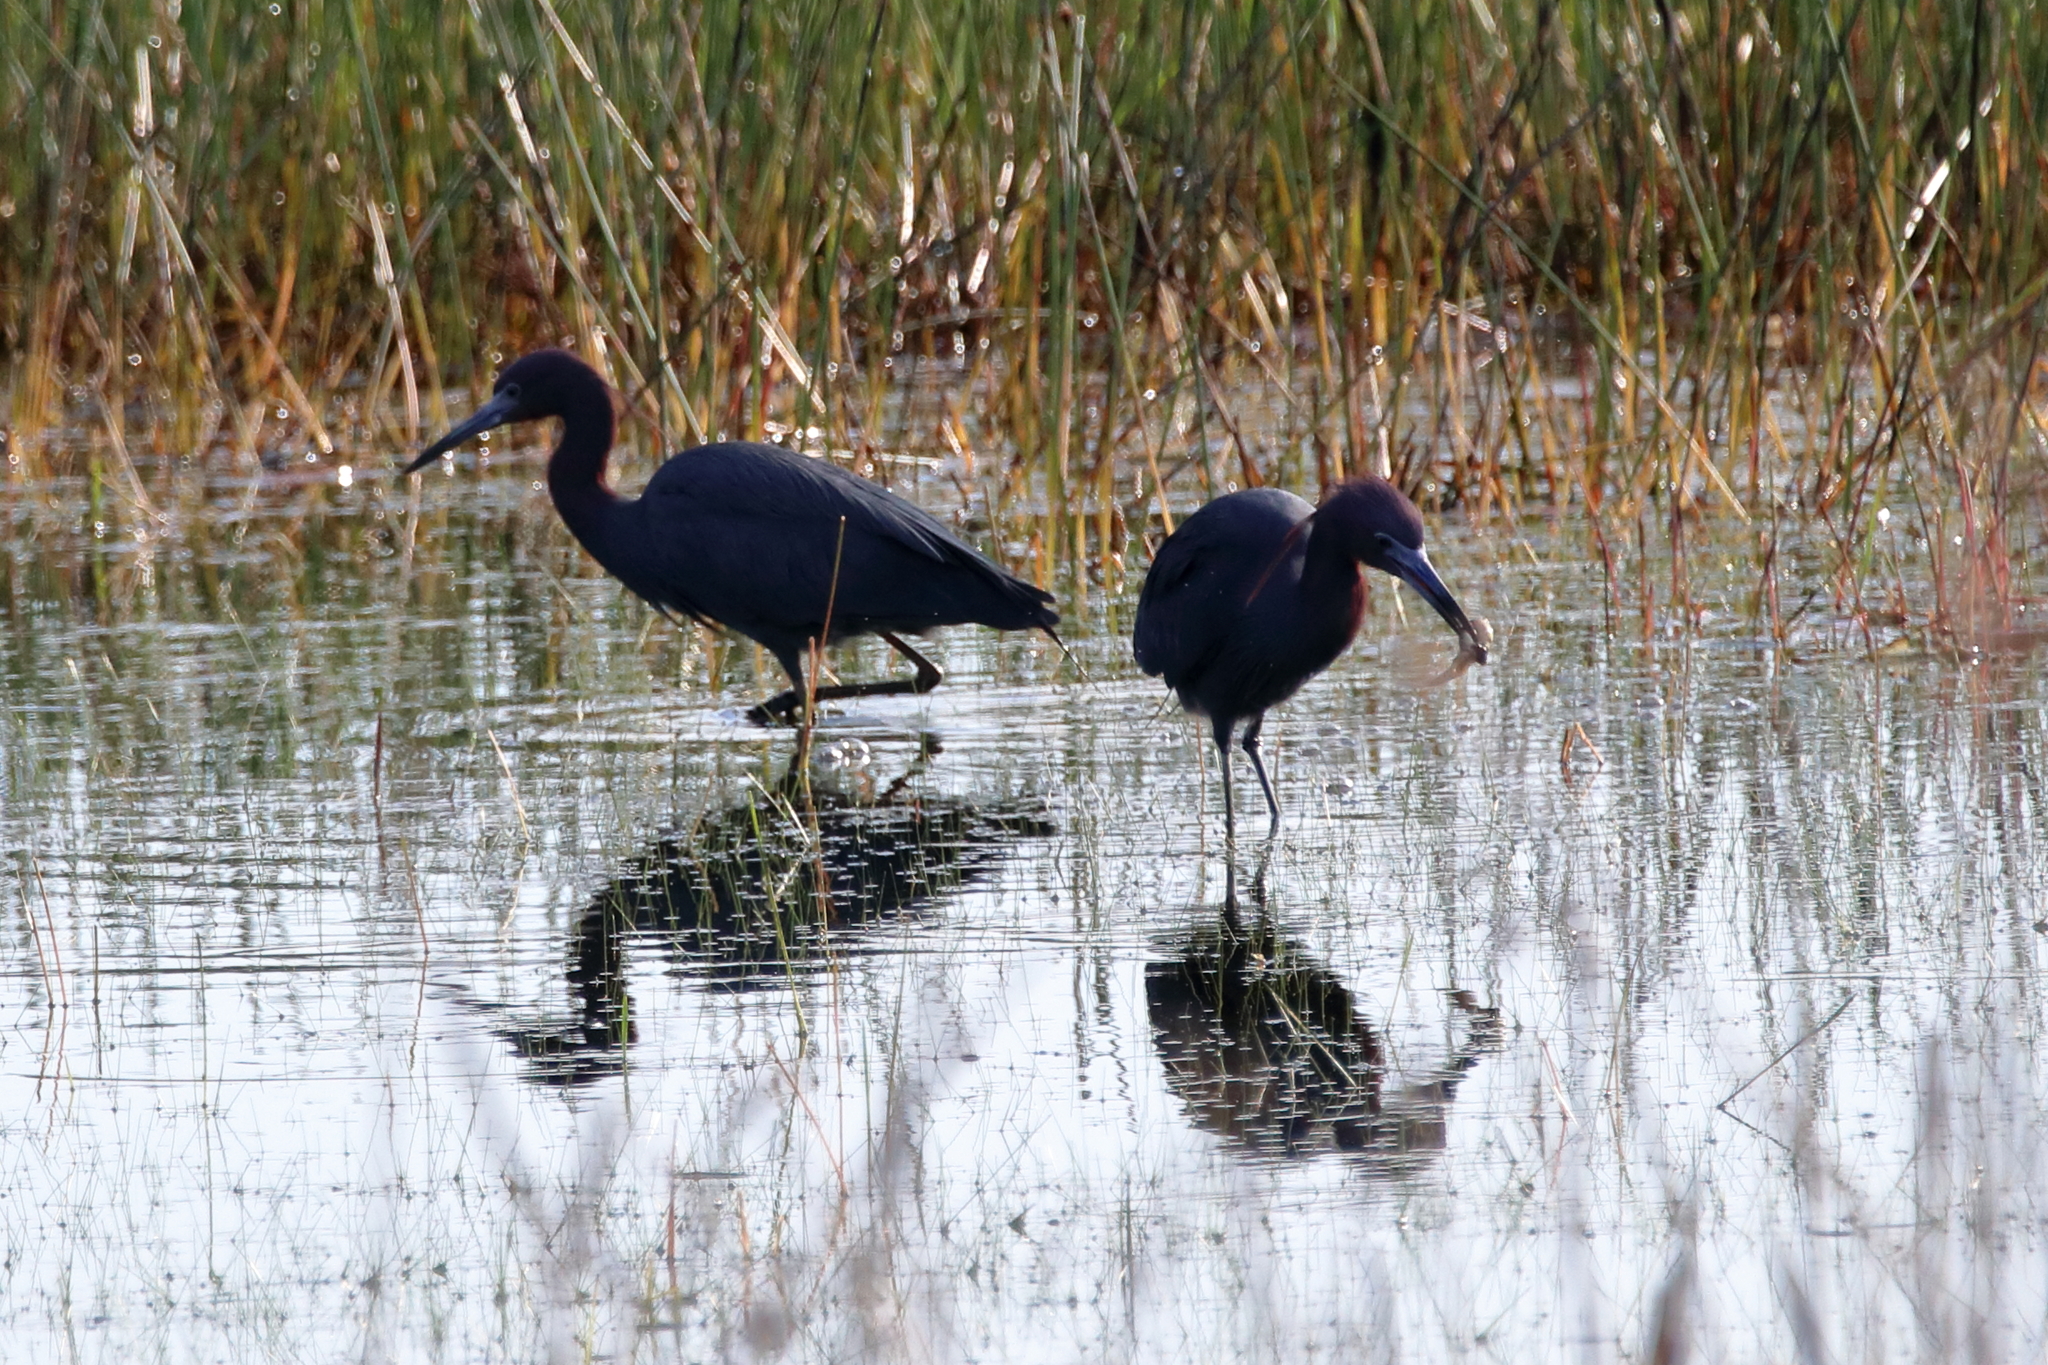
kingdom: Animalia
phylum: Chordata
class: Aves
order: Pelecaniformes
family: Ardeidae
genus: Egretta
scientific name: Egretta caerulea
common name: Little blue heron
